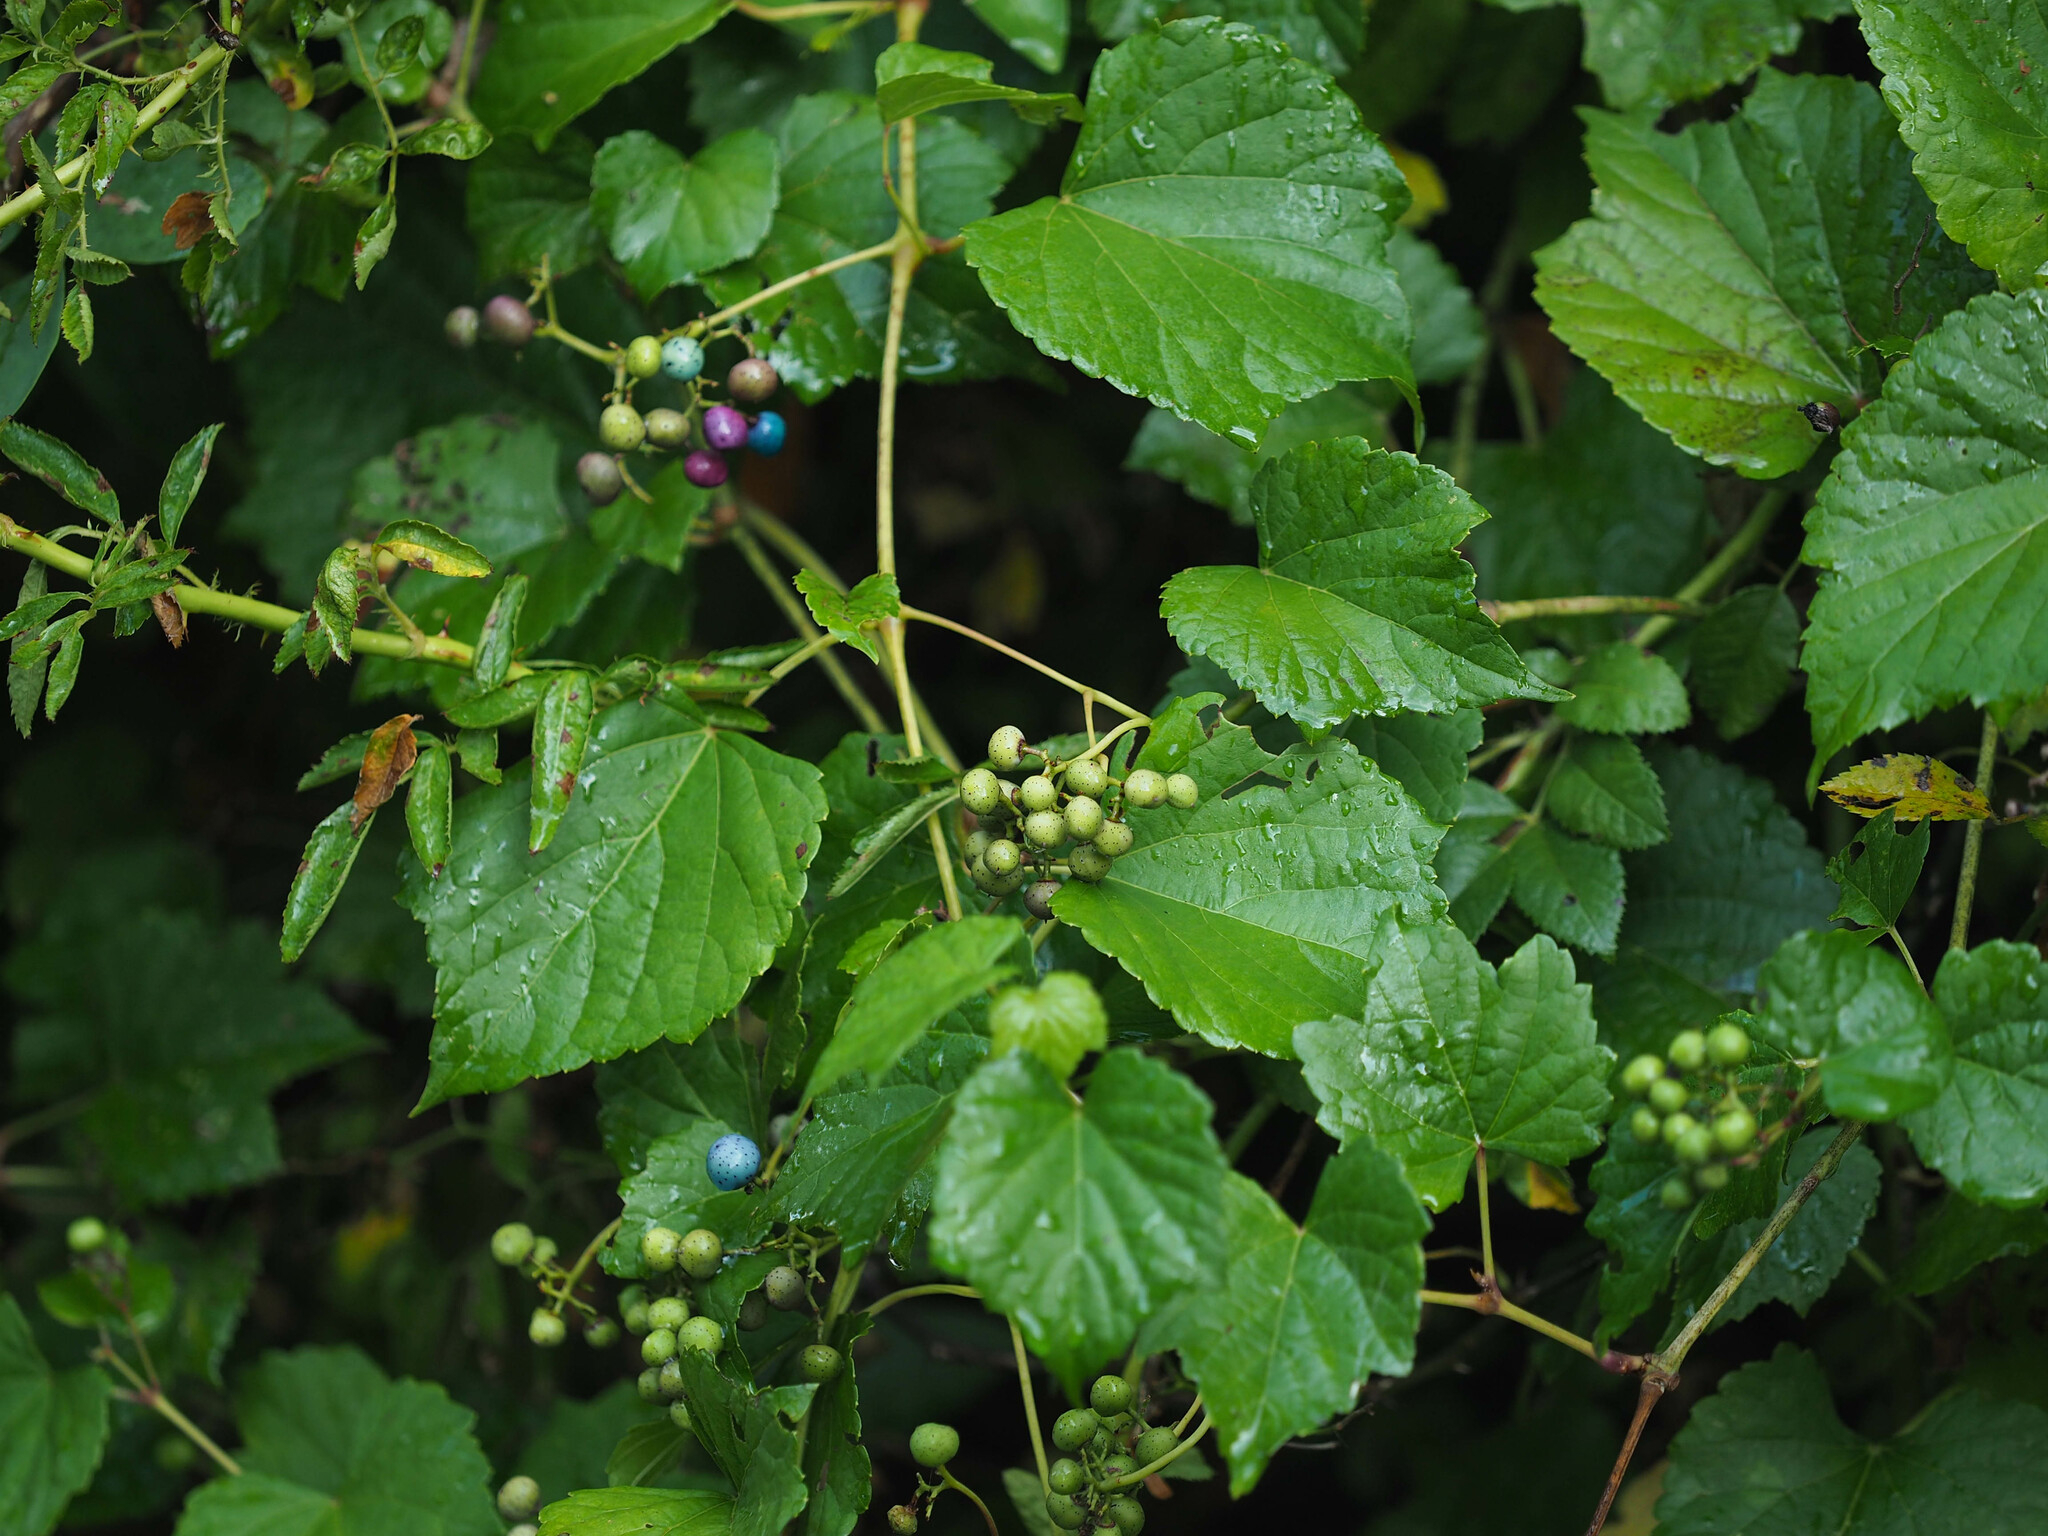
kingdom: Plantae
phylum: Tracheophyta
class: Magnoliopsida
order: Vitales
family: Vitaceae
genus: Ampelopsis
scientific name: Ampelopsis glandulosa
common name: Amur peppervine
